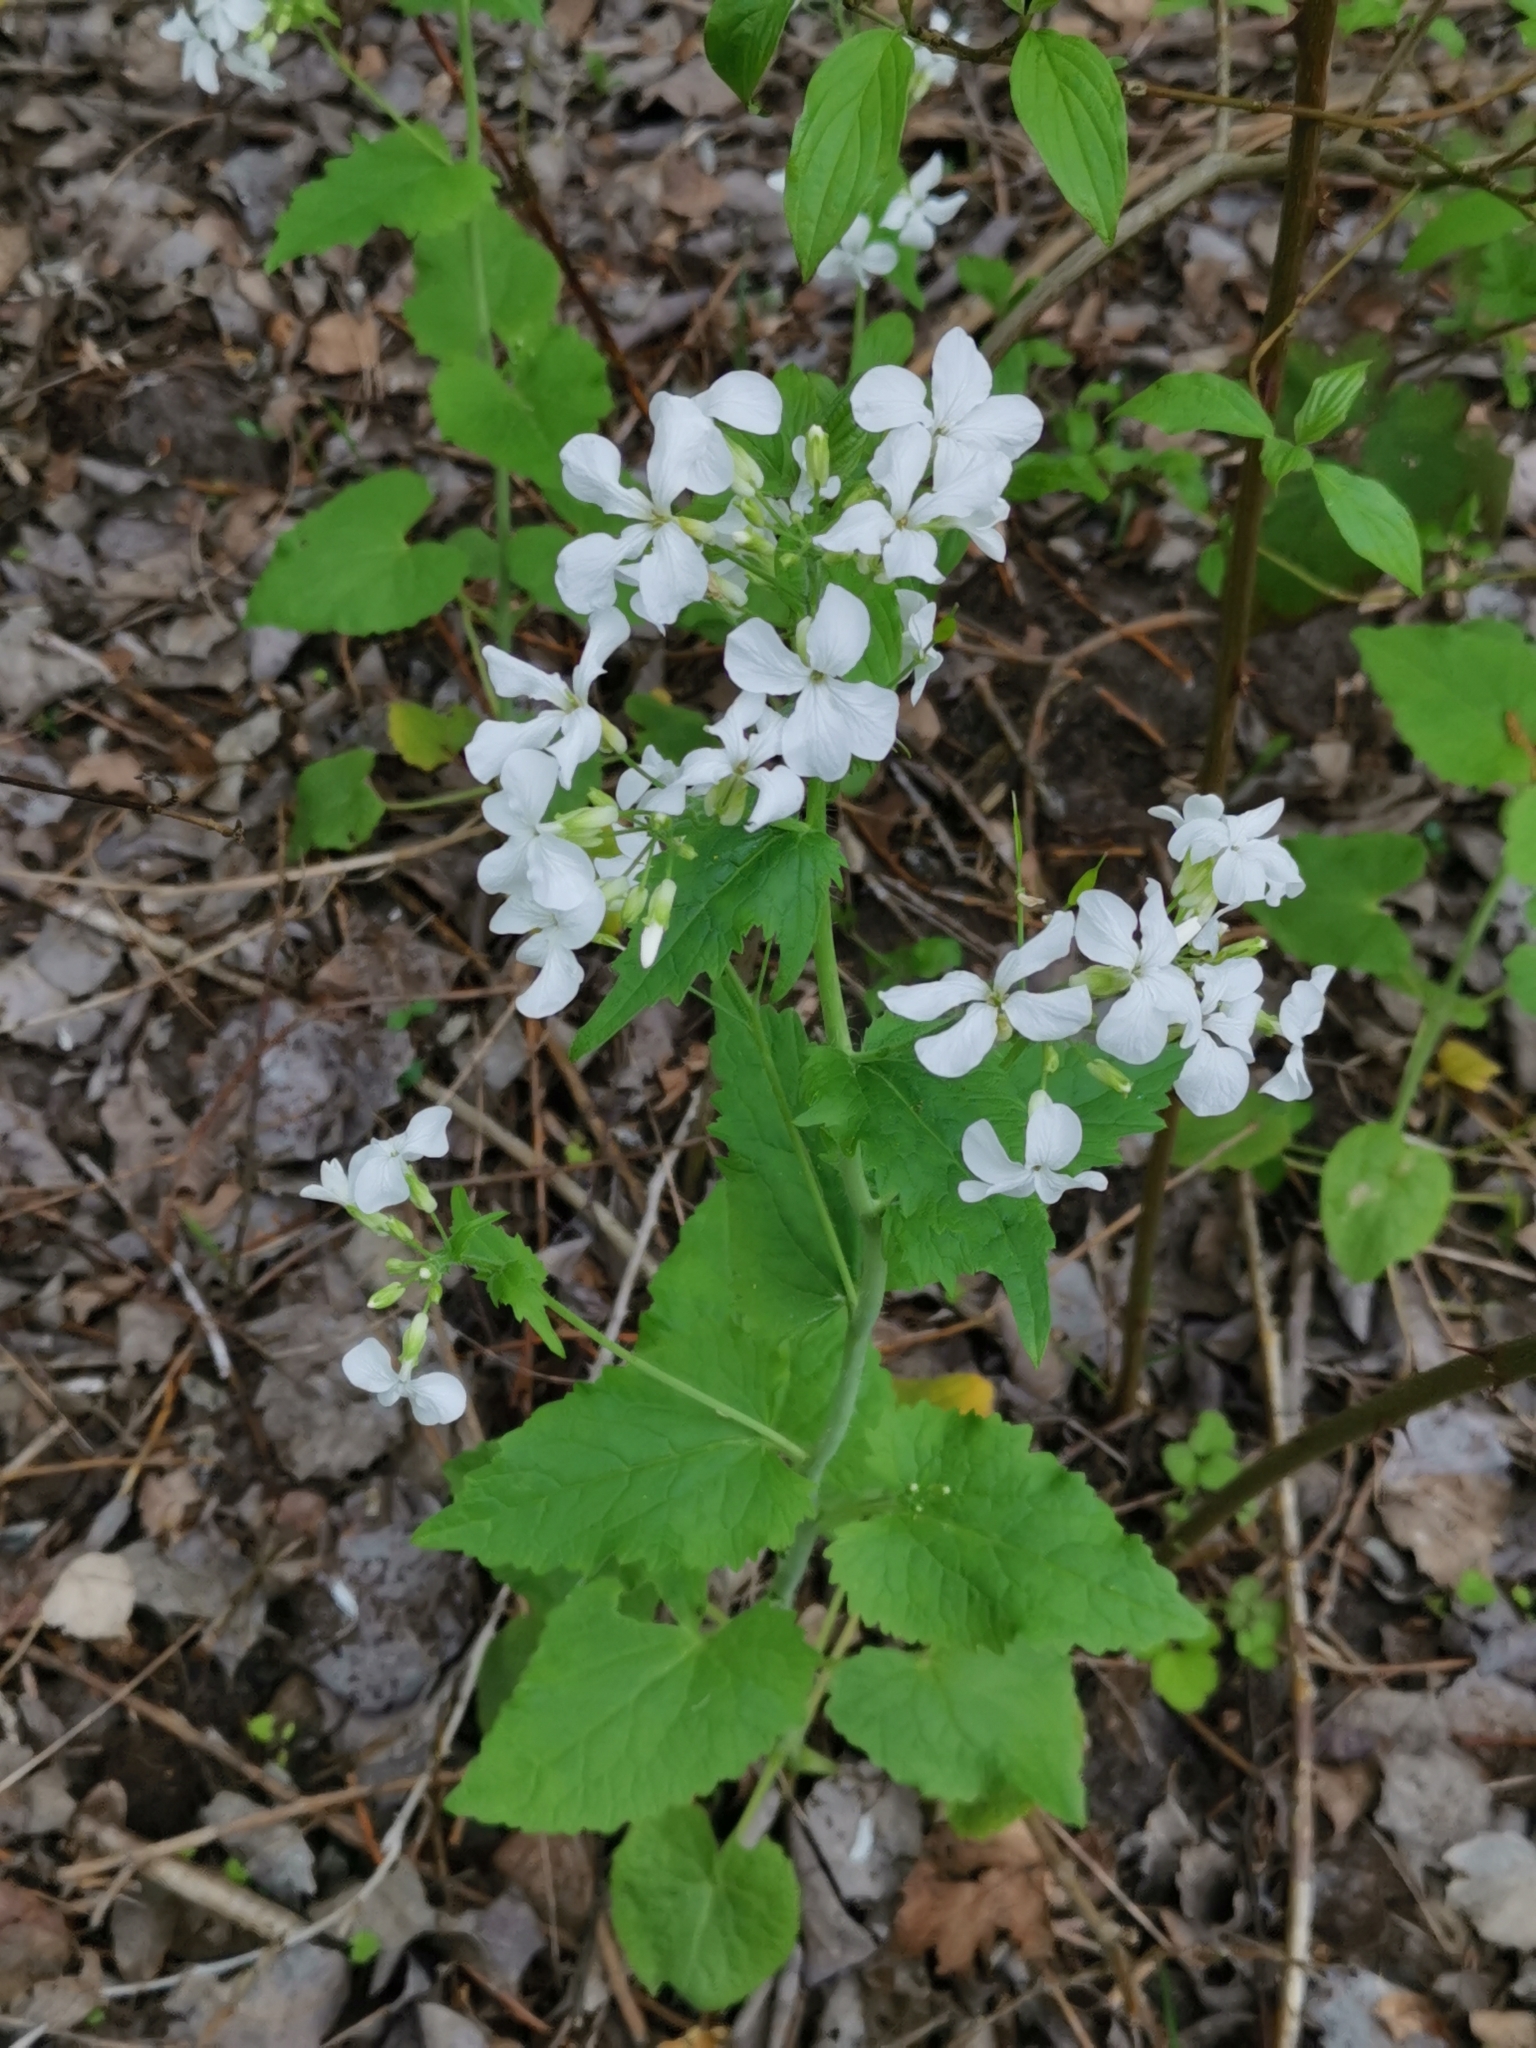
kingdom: Plantae
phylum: Tracheophyta
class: Magnoliopsida
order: Brassicales
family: Brassicaceae
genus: Lunaria
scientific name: Lunaria annua
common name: Honesty
